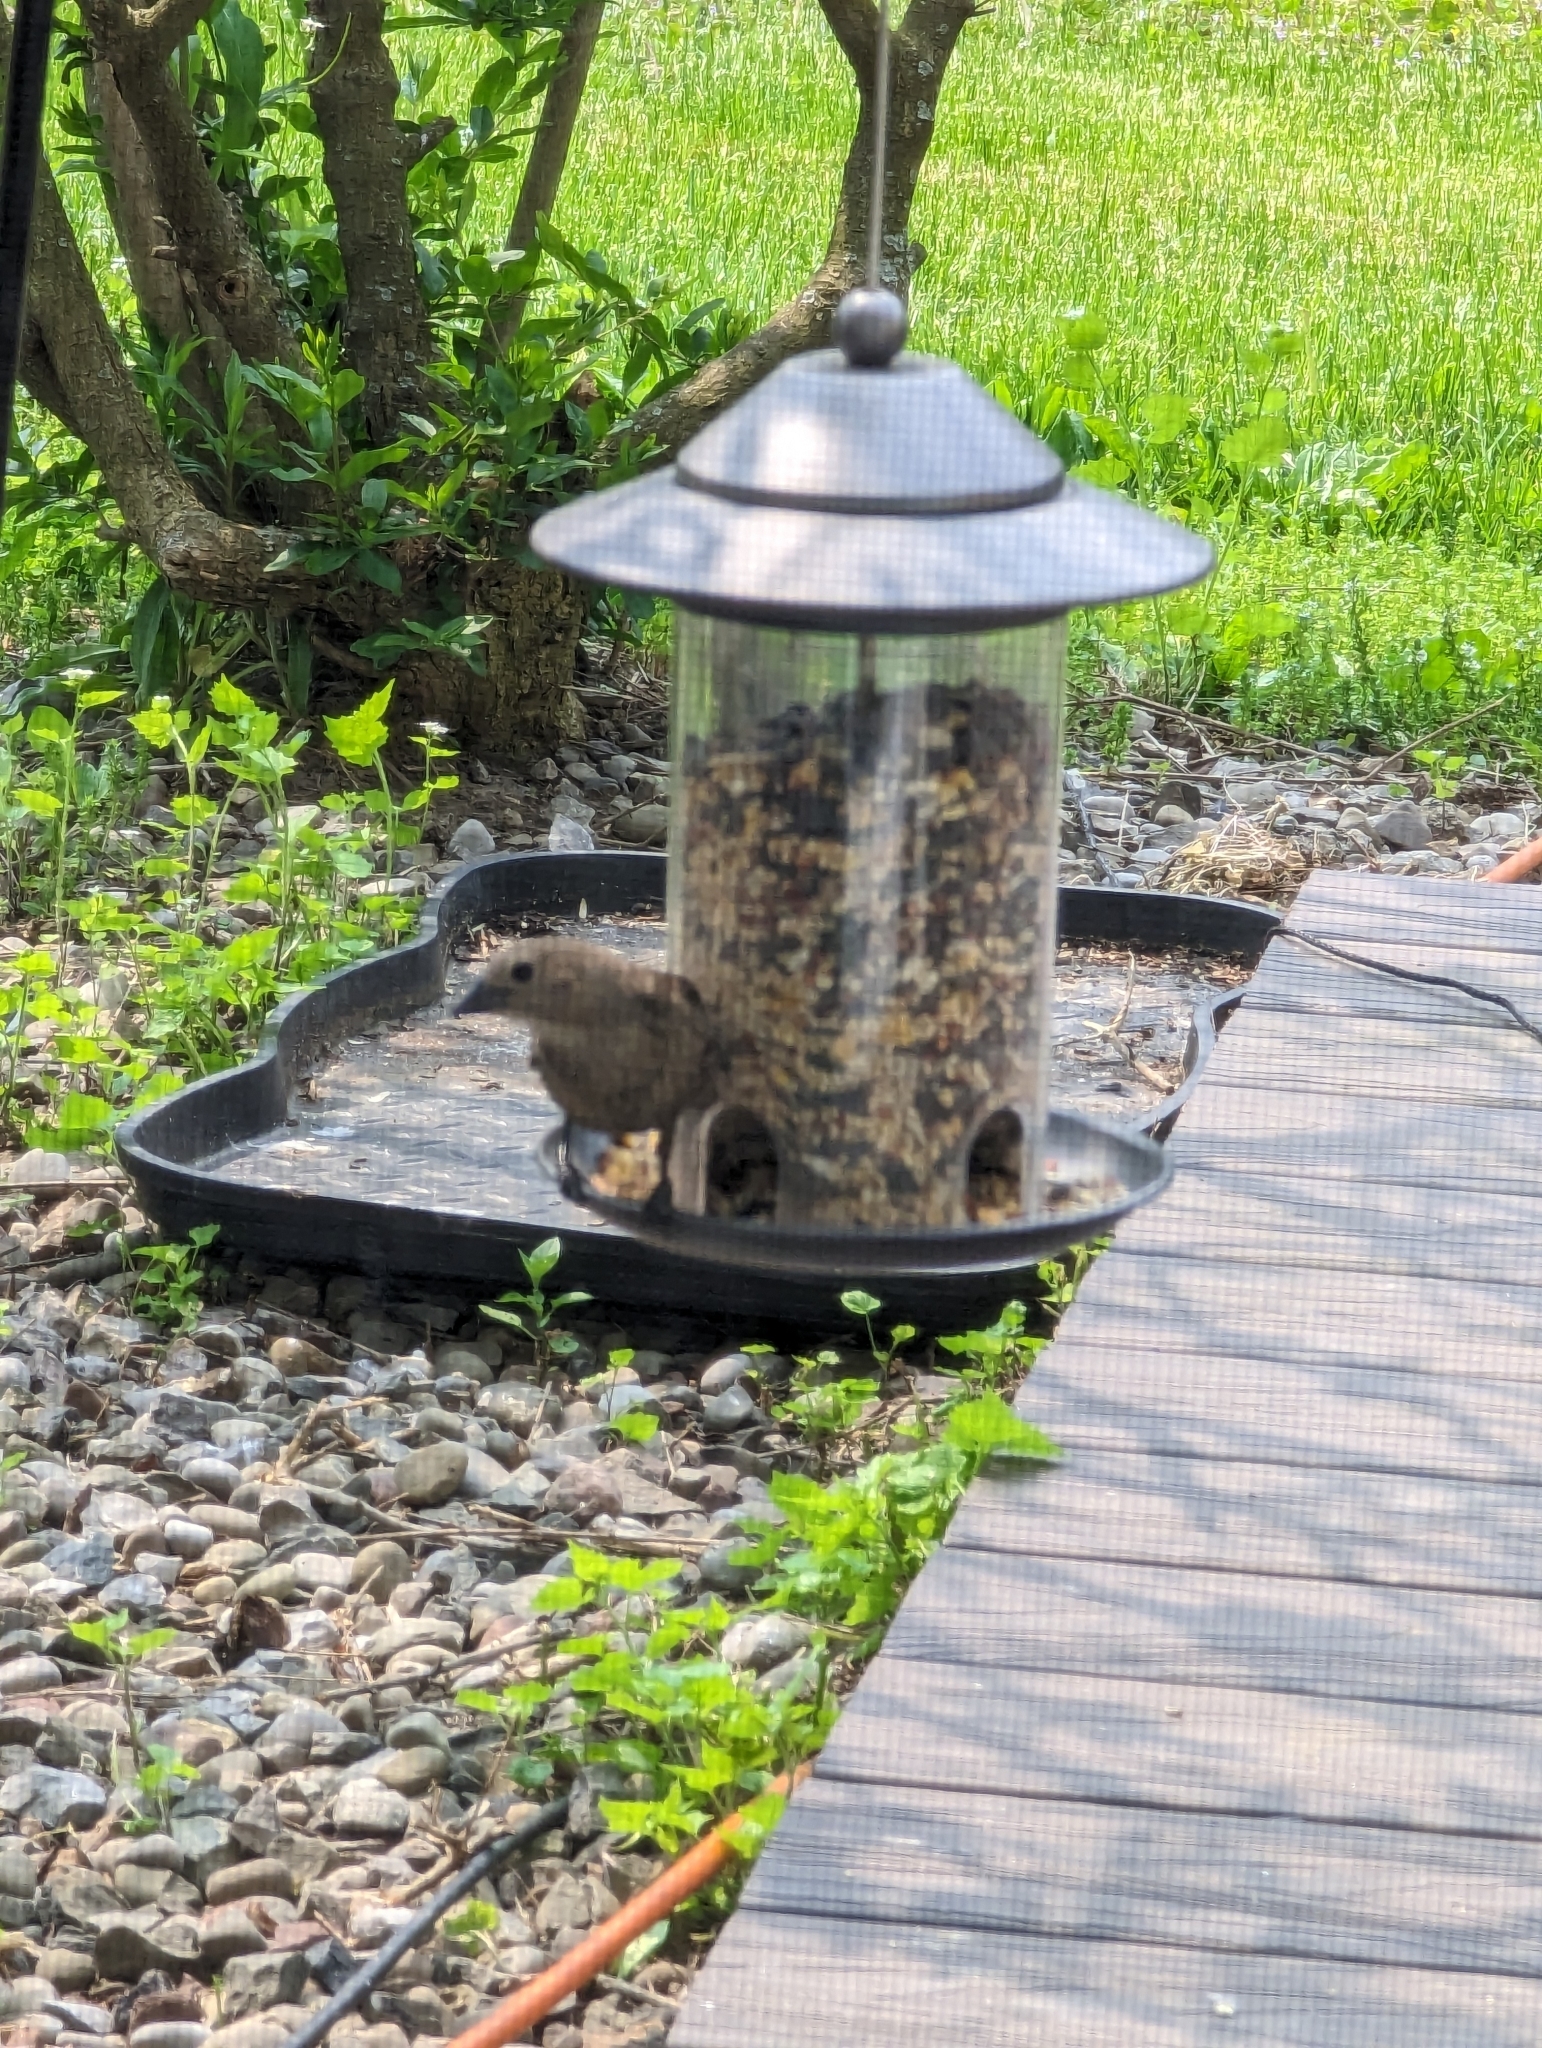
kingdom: Animalia
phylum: Chordata
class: Aves
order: Passeriformes
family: Icteridae
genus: Molothrus
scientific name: Molothrus ater
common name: Brown-headed cowbird
